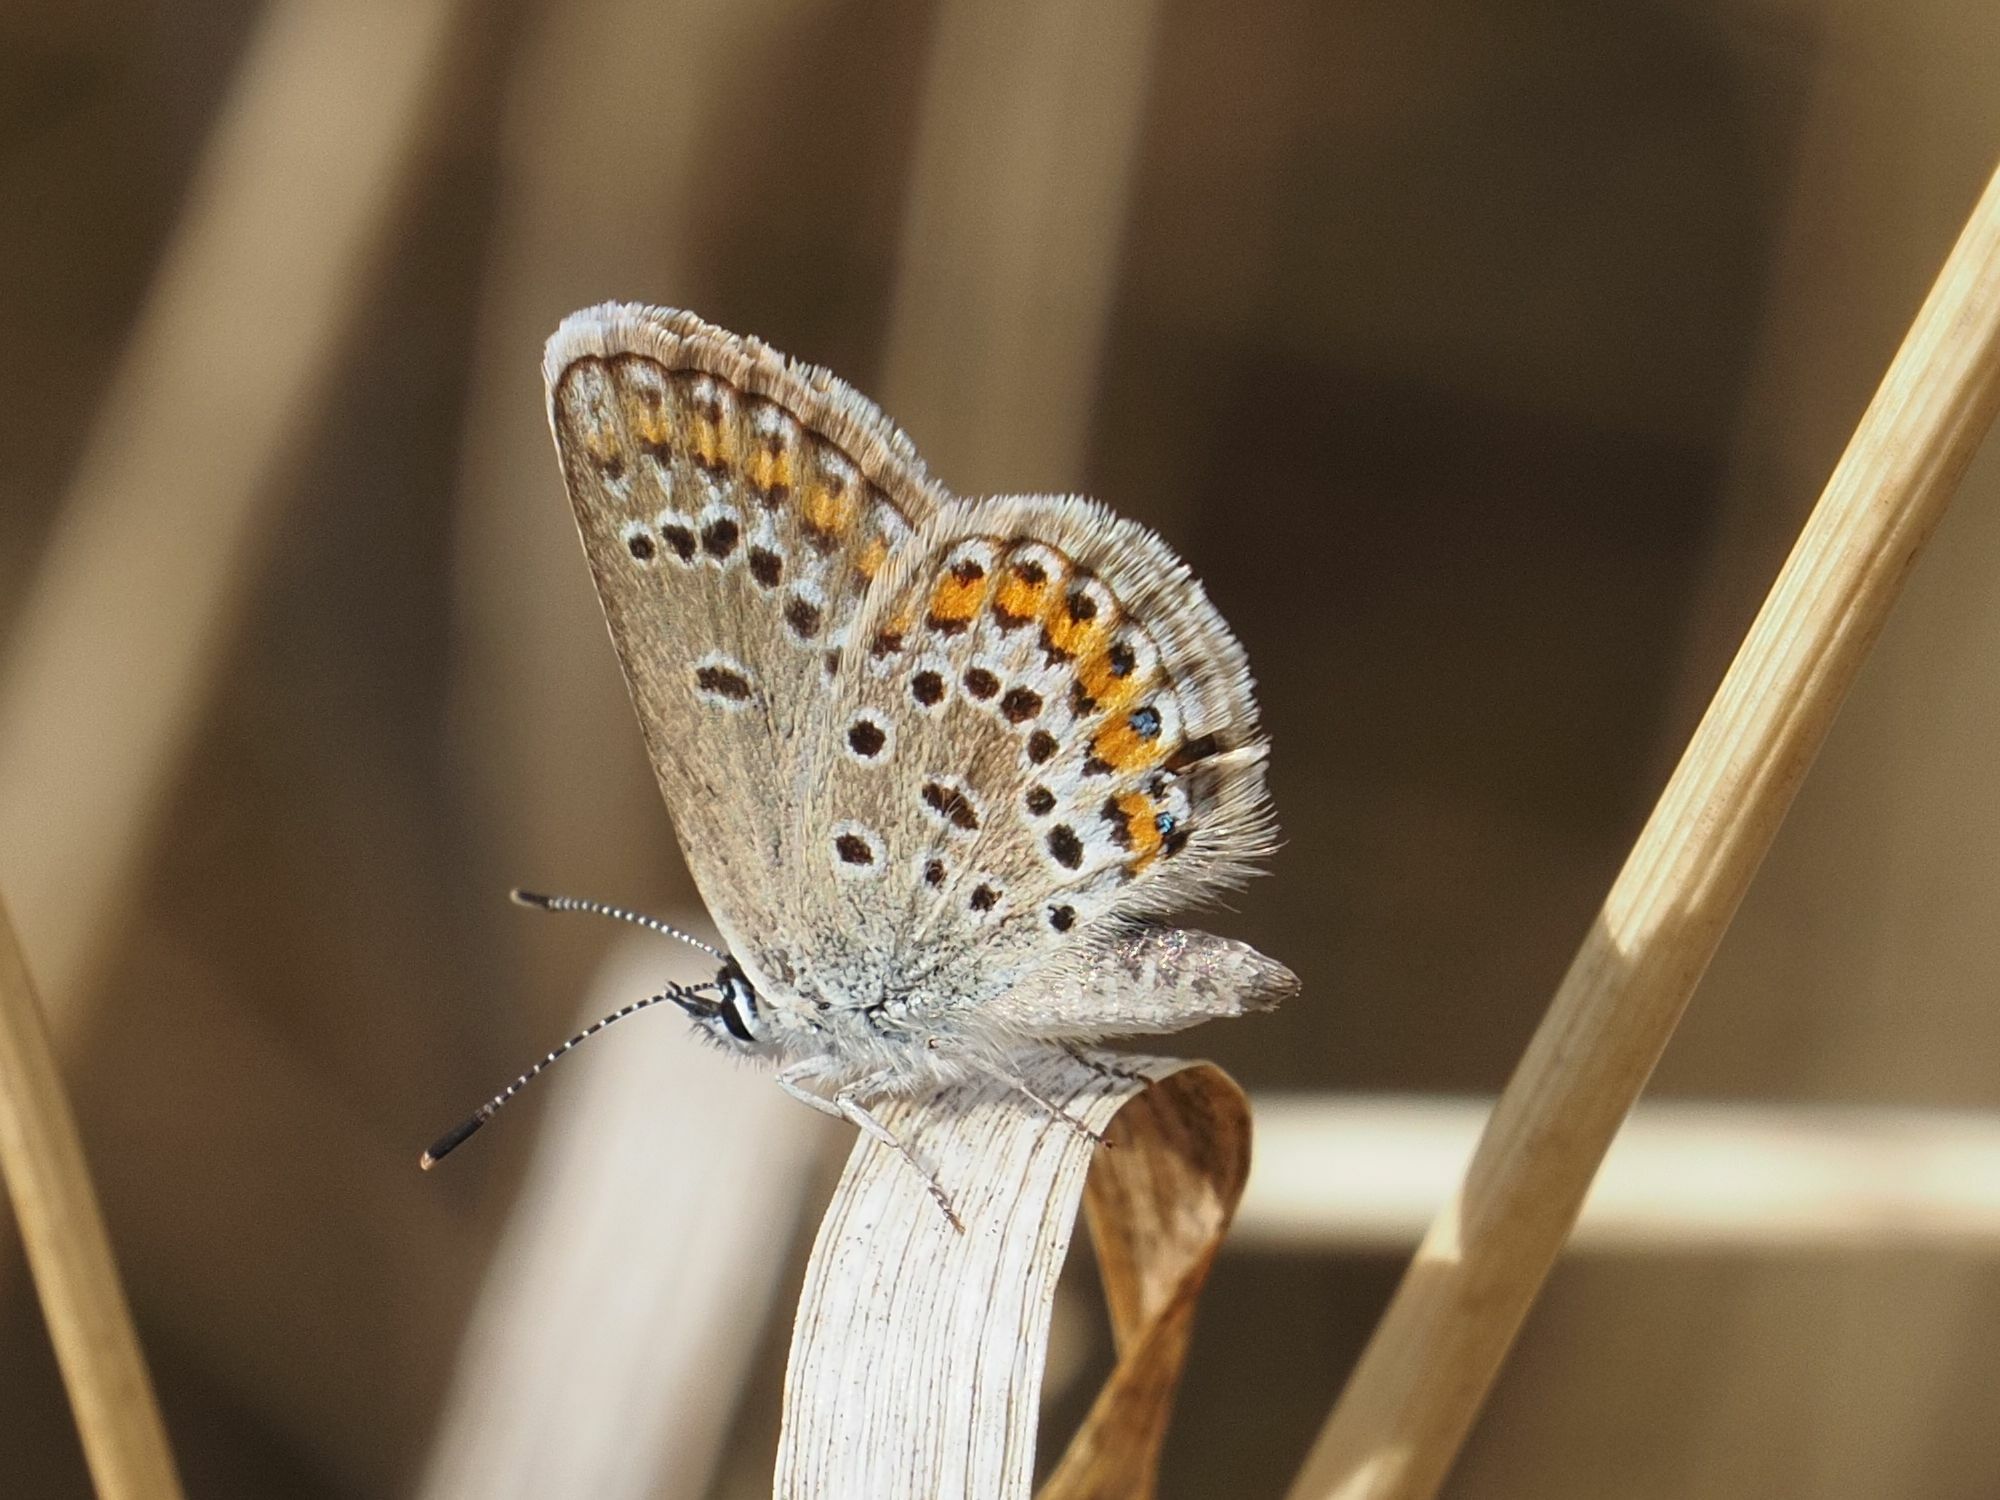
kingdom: Animalia
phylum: Arthropoda
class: Insecta
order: Lepidoptera
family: Lycaenidae
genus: Plebejus
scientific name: Plebejus argus
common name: Silver-studded blue
